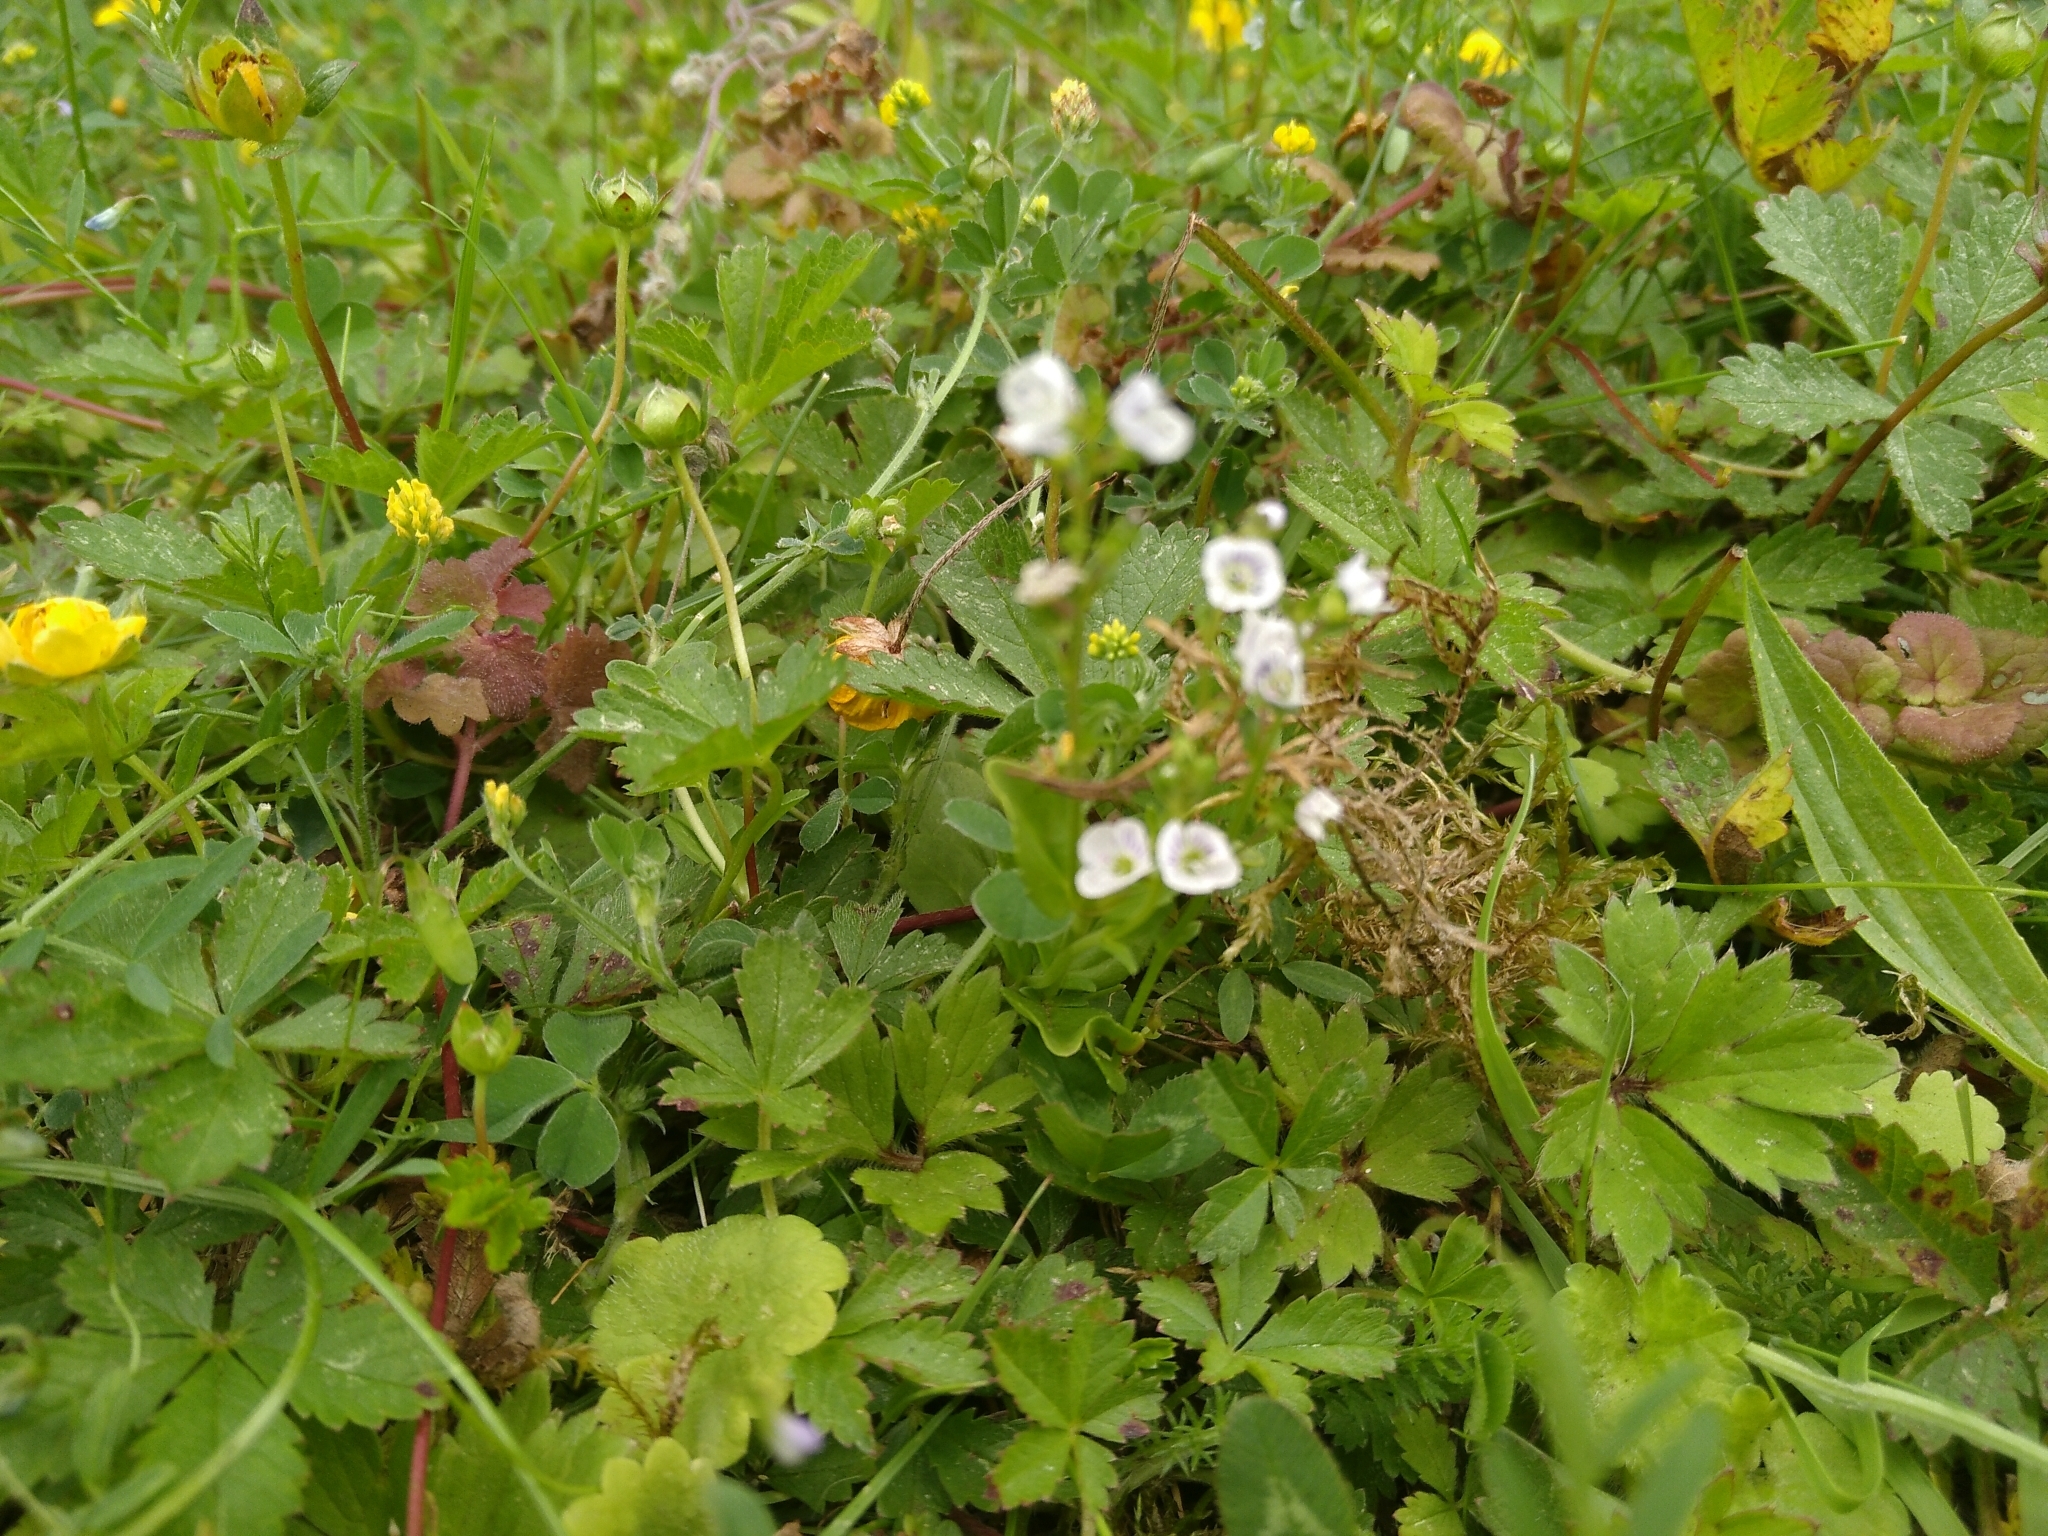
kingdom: Plantae
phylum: Tracheophyta
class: Magnoliopsida
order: Lamiales
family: Plantaginaceae
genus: Veronica
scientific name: Veronica serpyllifolia
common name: Thyme-leaved speedwell
